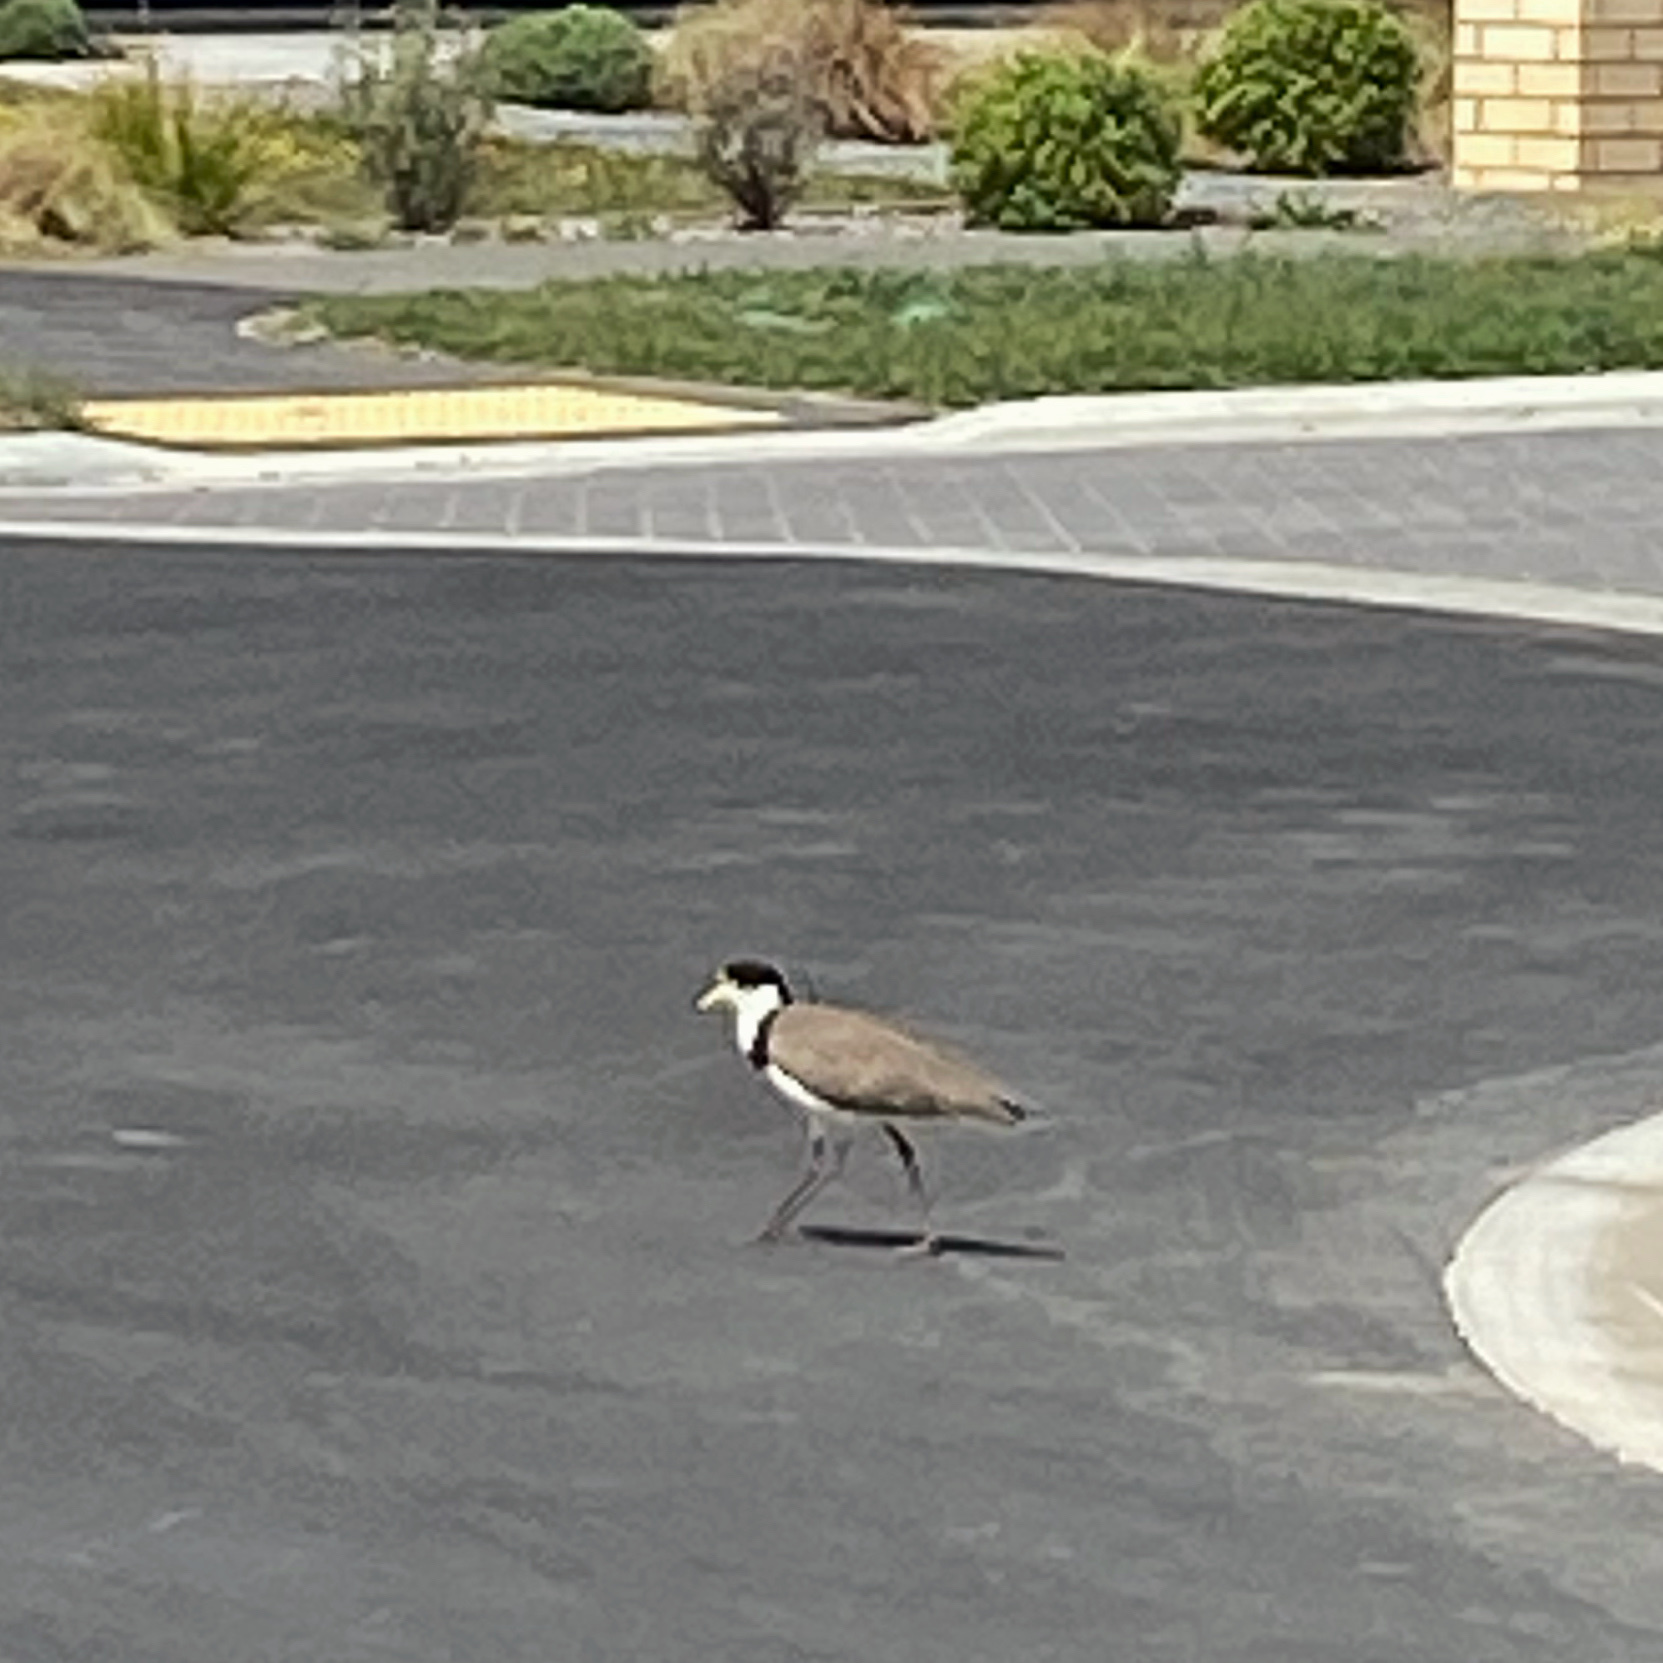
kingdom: Animalia
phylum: Chordata
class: Aves
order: Charadriiformes
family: Charadriidae
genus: Vanellus
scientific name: Vanellus miles
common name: Masked lapwing
